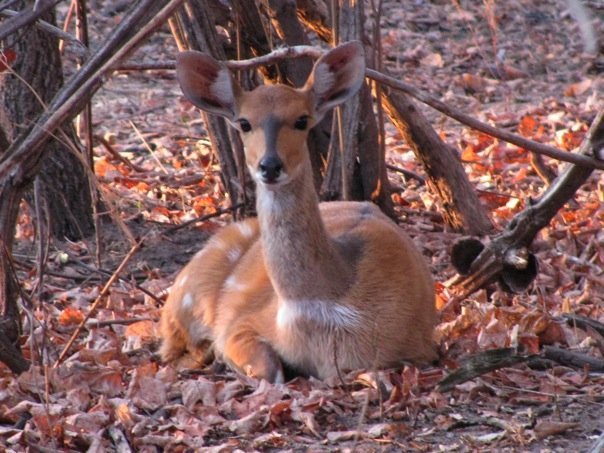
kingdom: Animalia
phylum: Chordata
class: Mammalia
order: Artiodactyla
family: Bovidae
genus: Tragelaphus
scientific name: Tragelaphus scriptus
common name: Bushbuck
